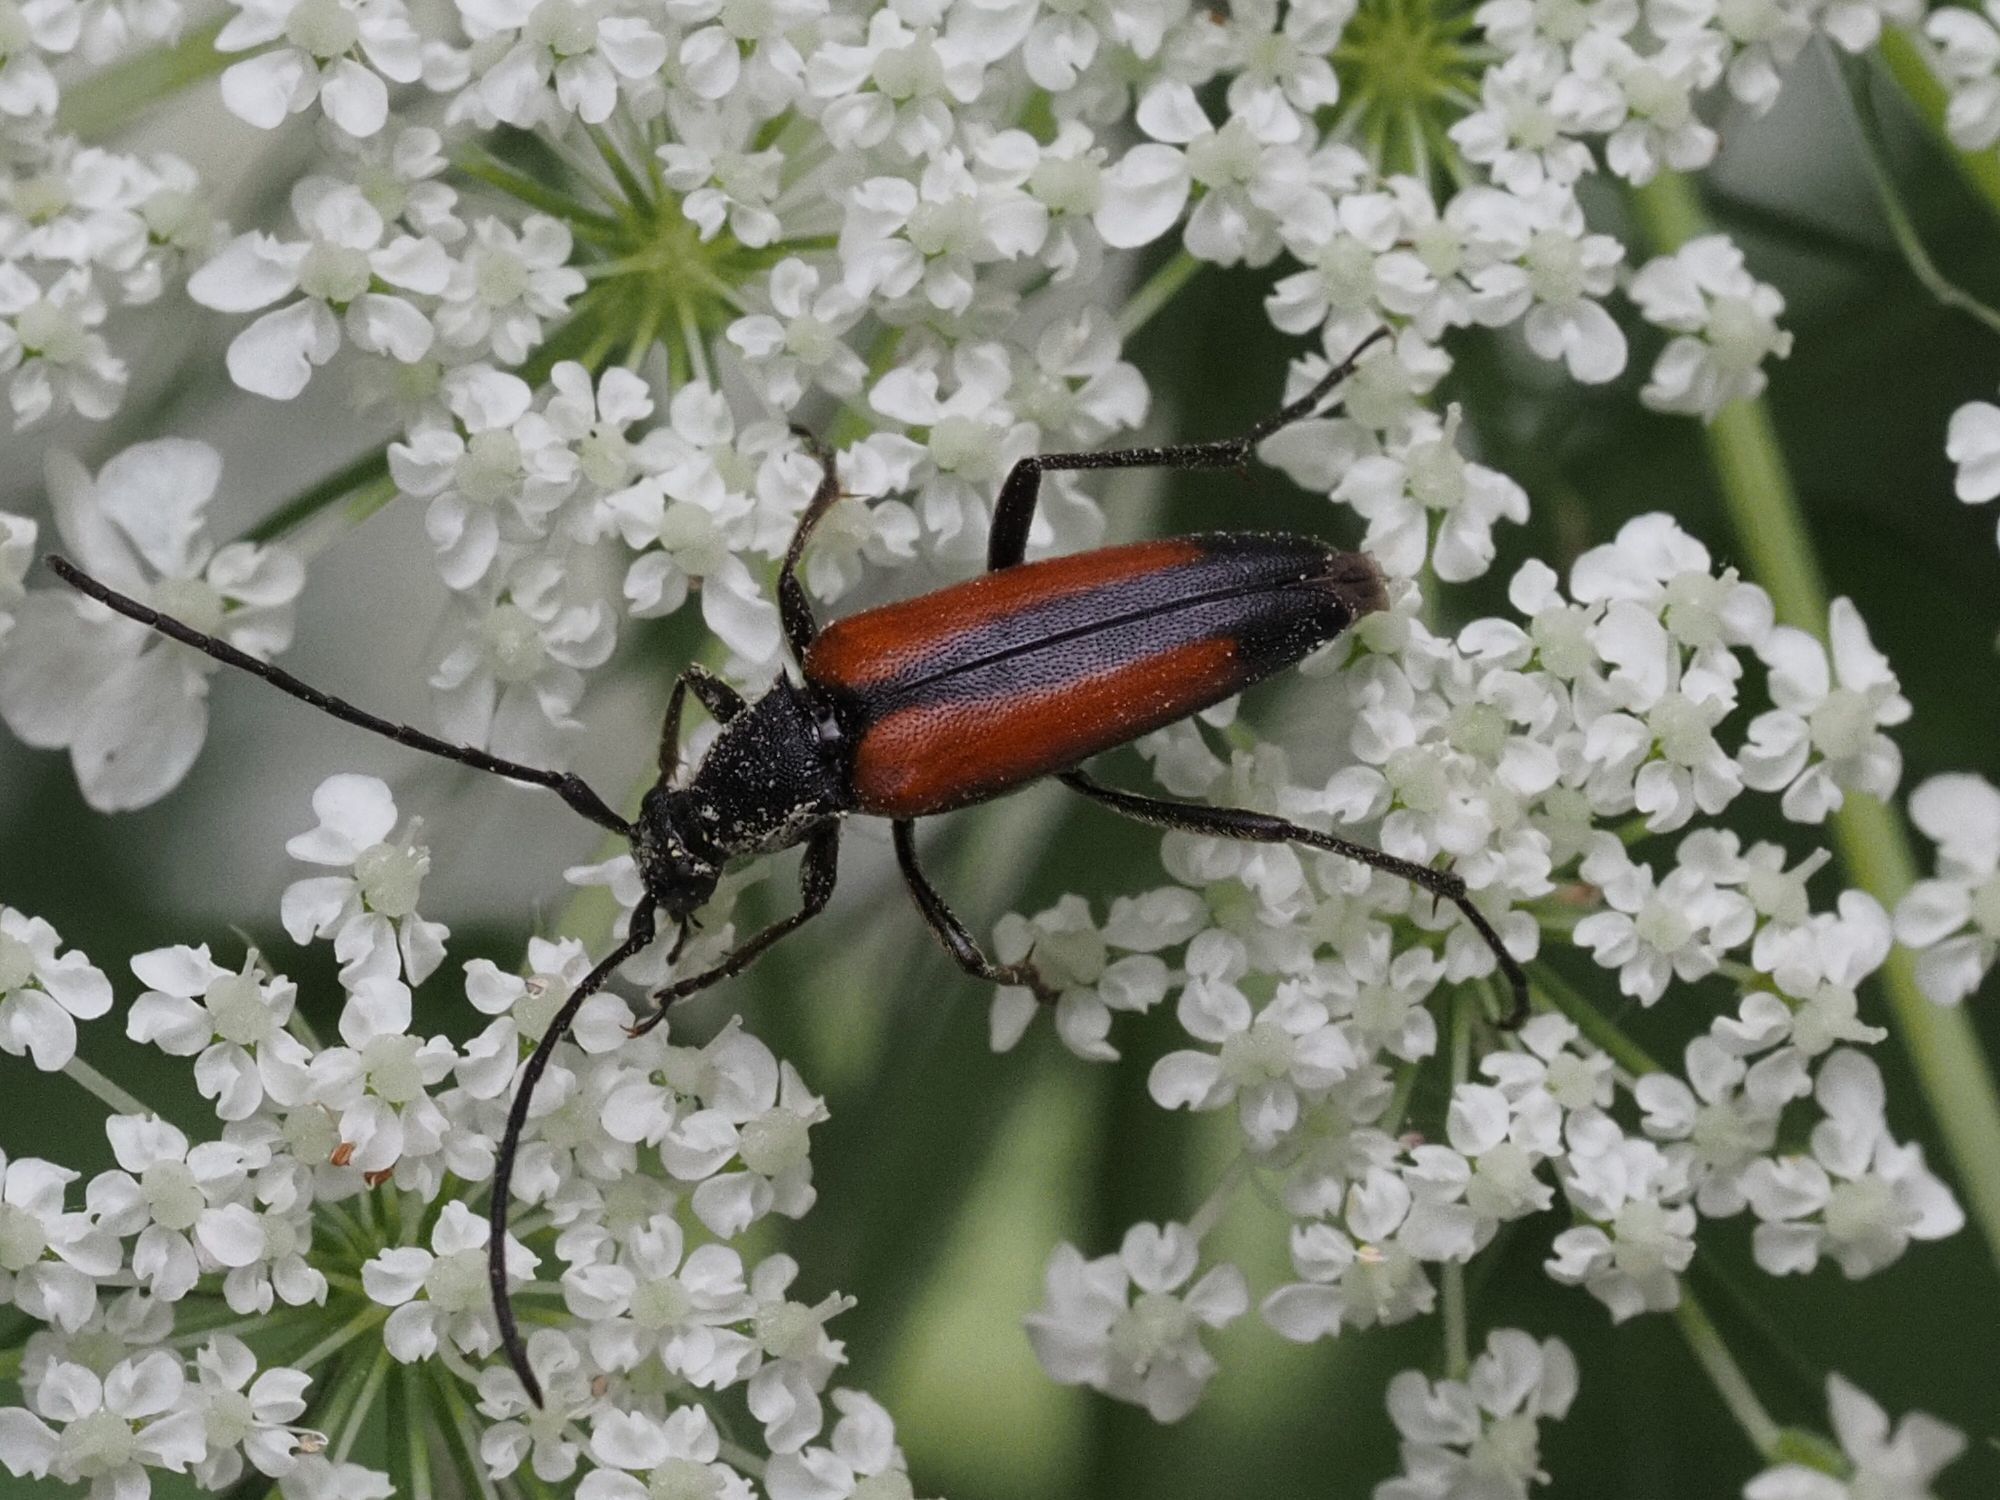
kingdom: Animalia
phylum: Arthropoda
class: Insecta
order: Coleoptera
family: Cerambycidae
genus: Stenurella
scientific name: Stenurella melanura
